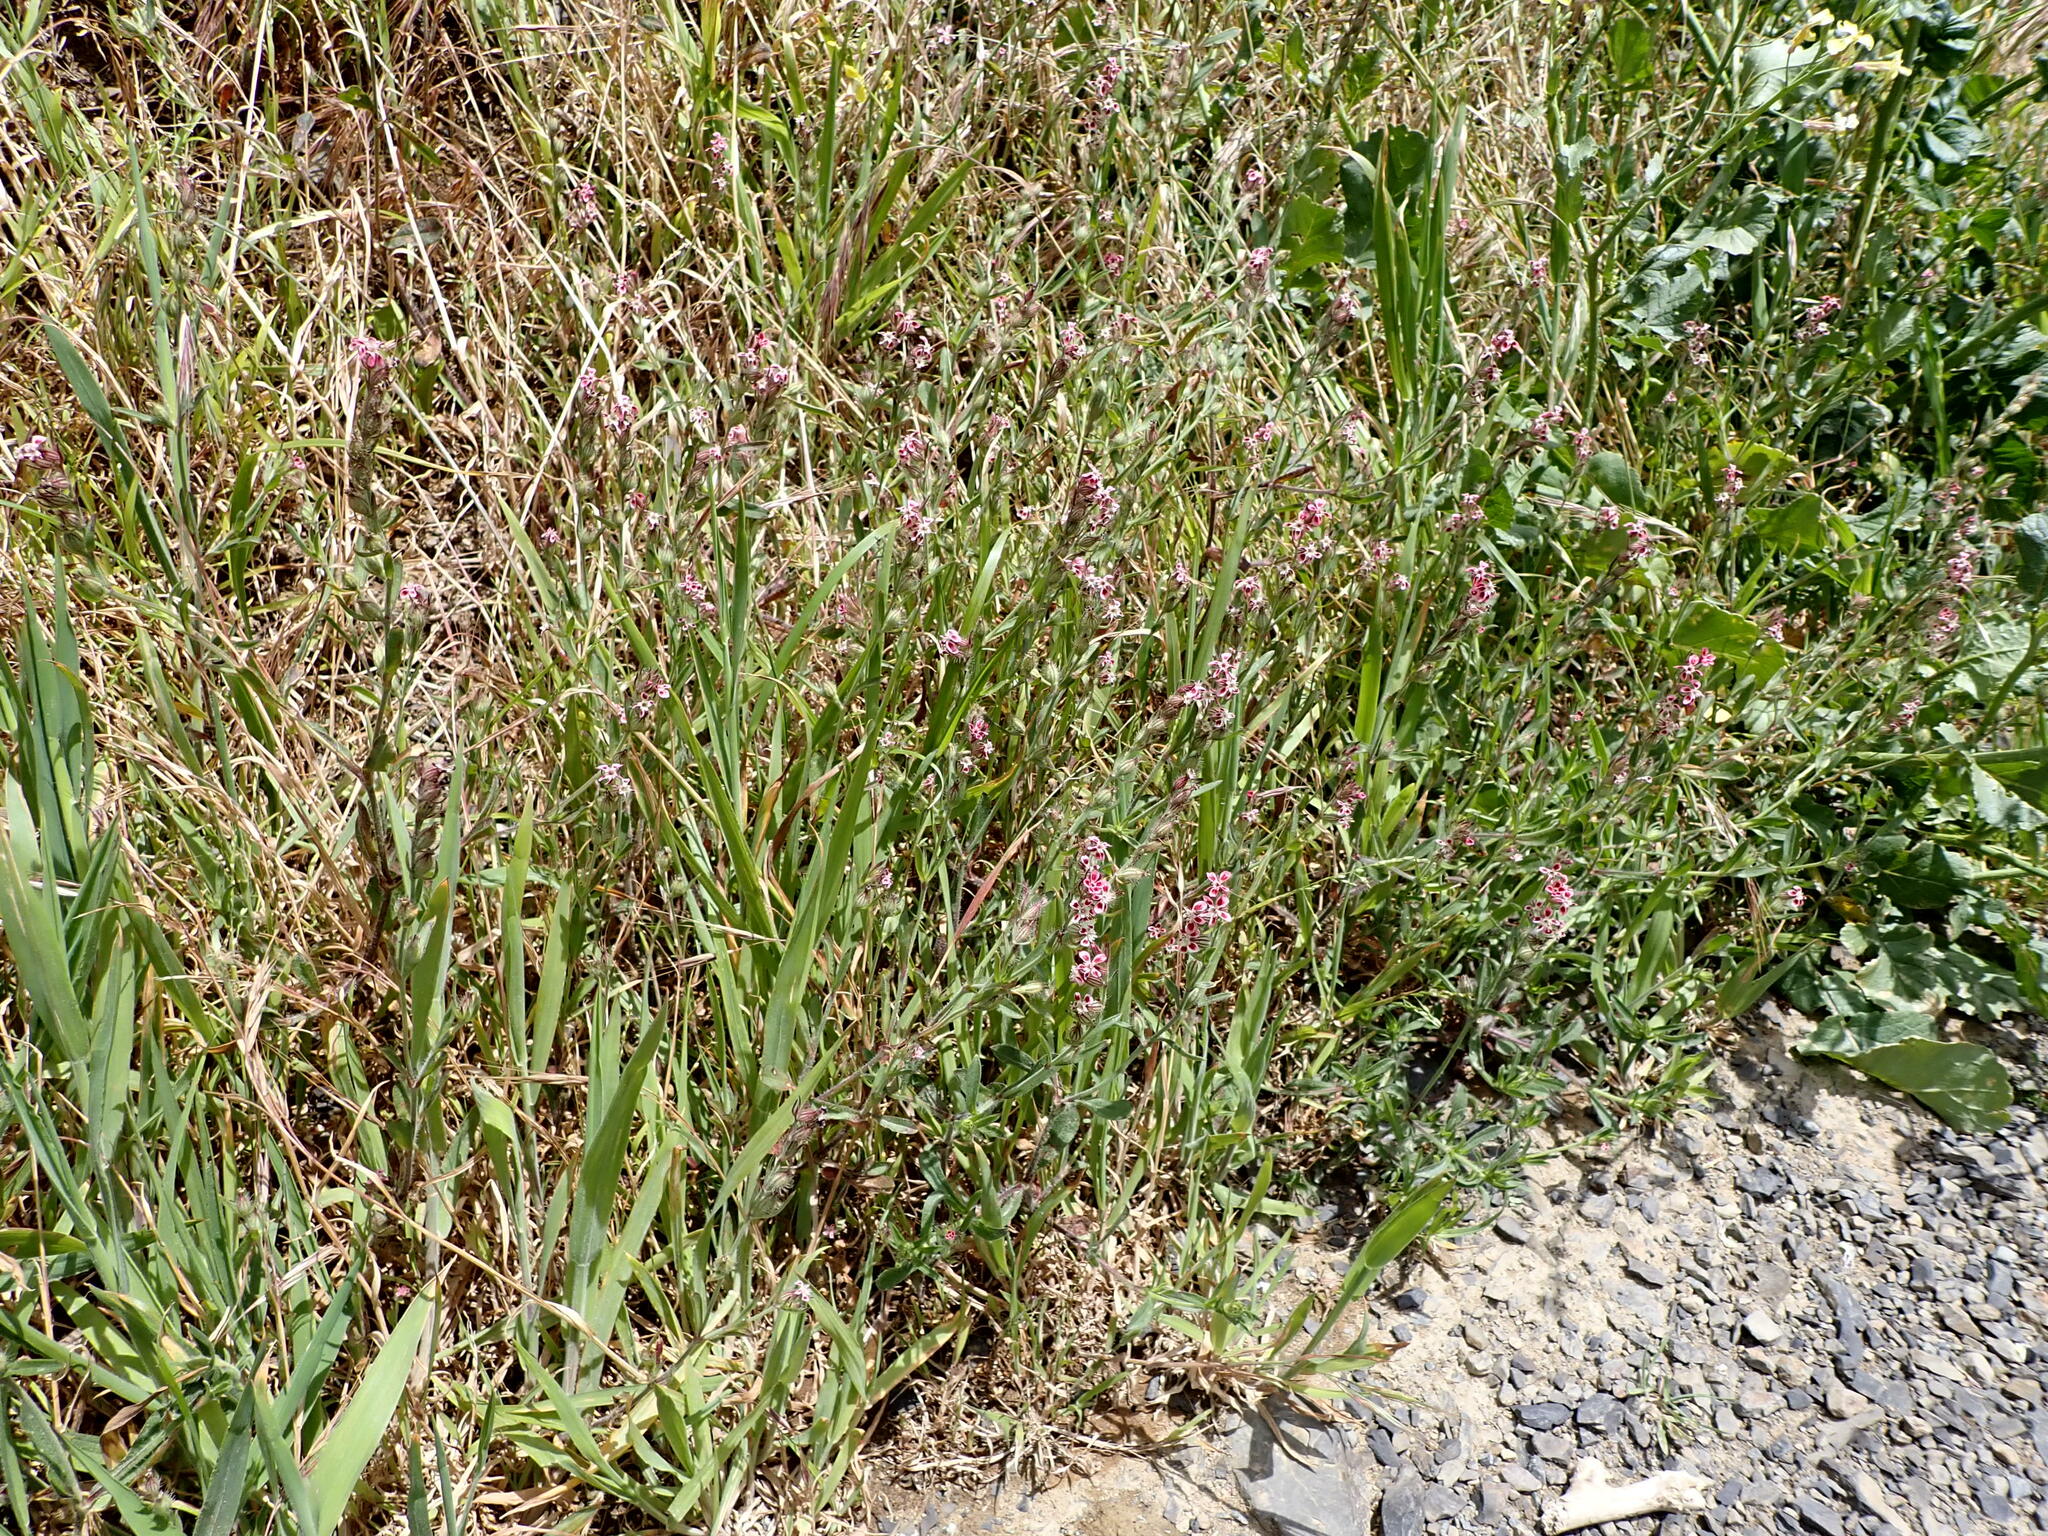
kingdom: Plantae
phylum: Tracheophyta
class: Magnoliopsida
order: Caryophyllales
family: Caryophyllaceae
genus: Silene
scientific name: Silene gallica
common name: Small-flowered catchfly
